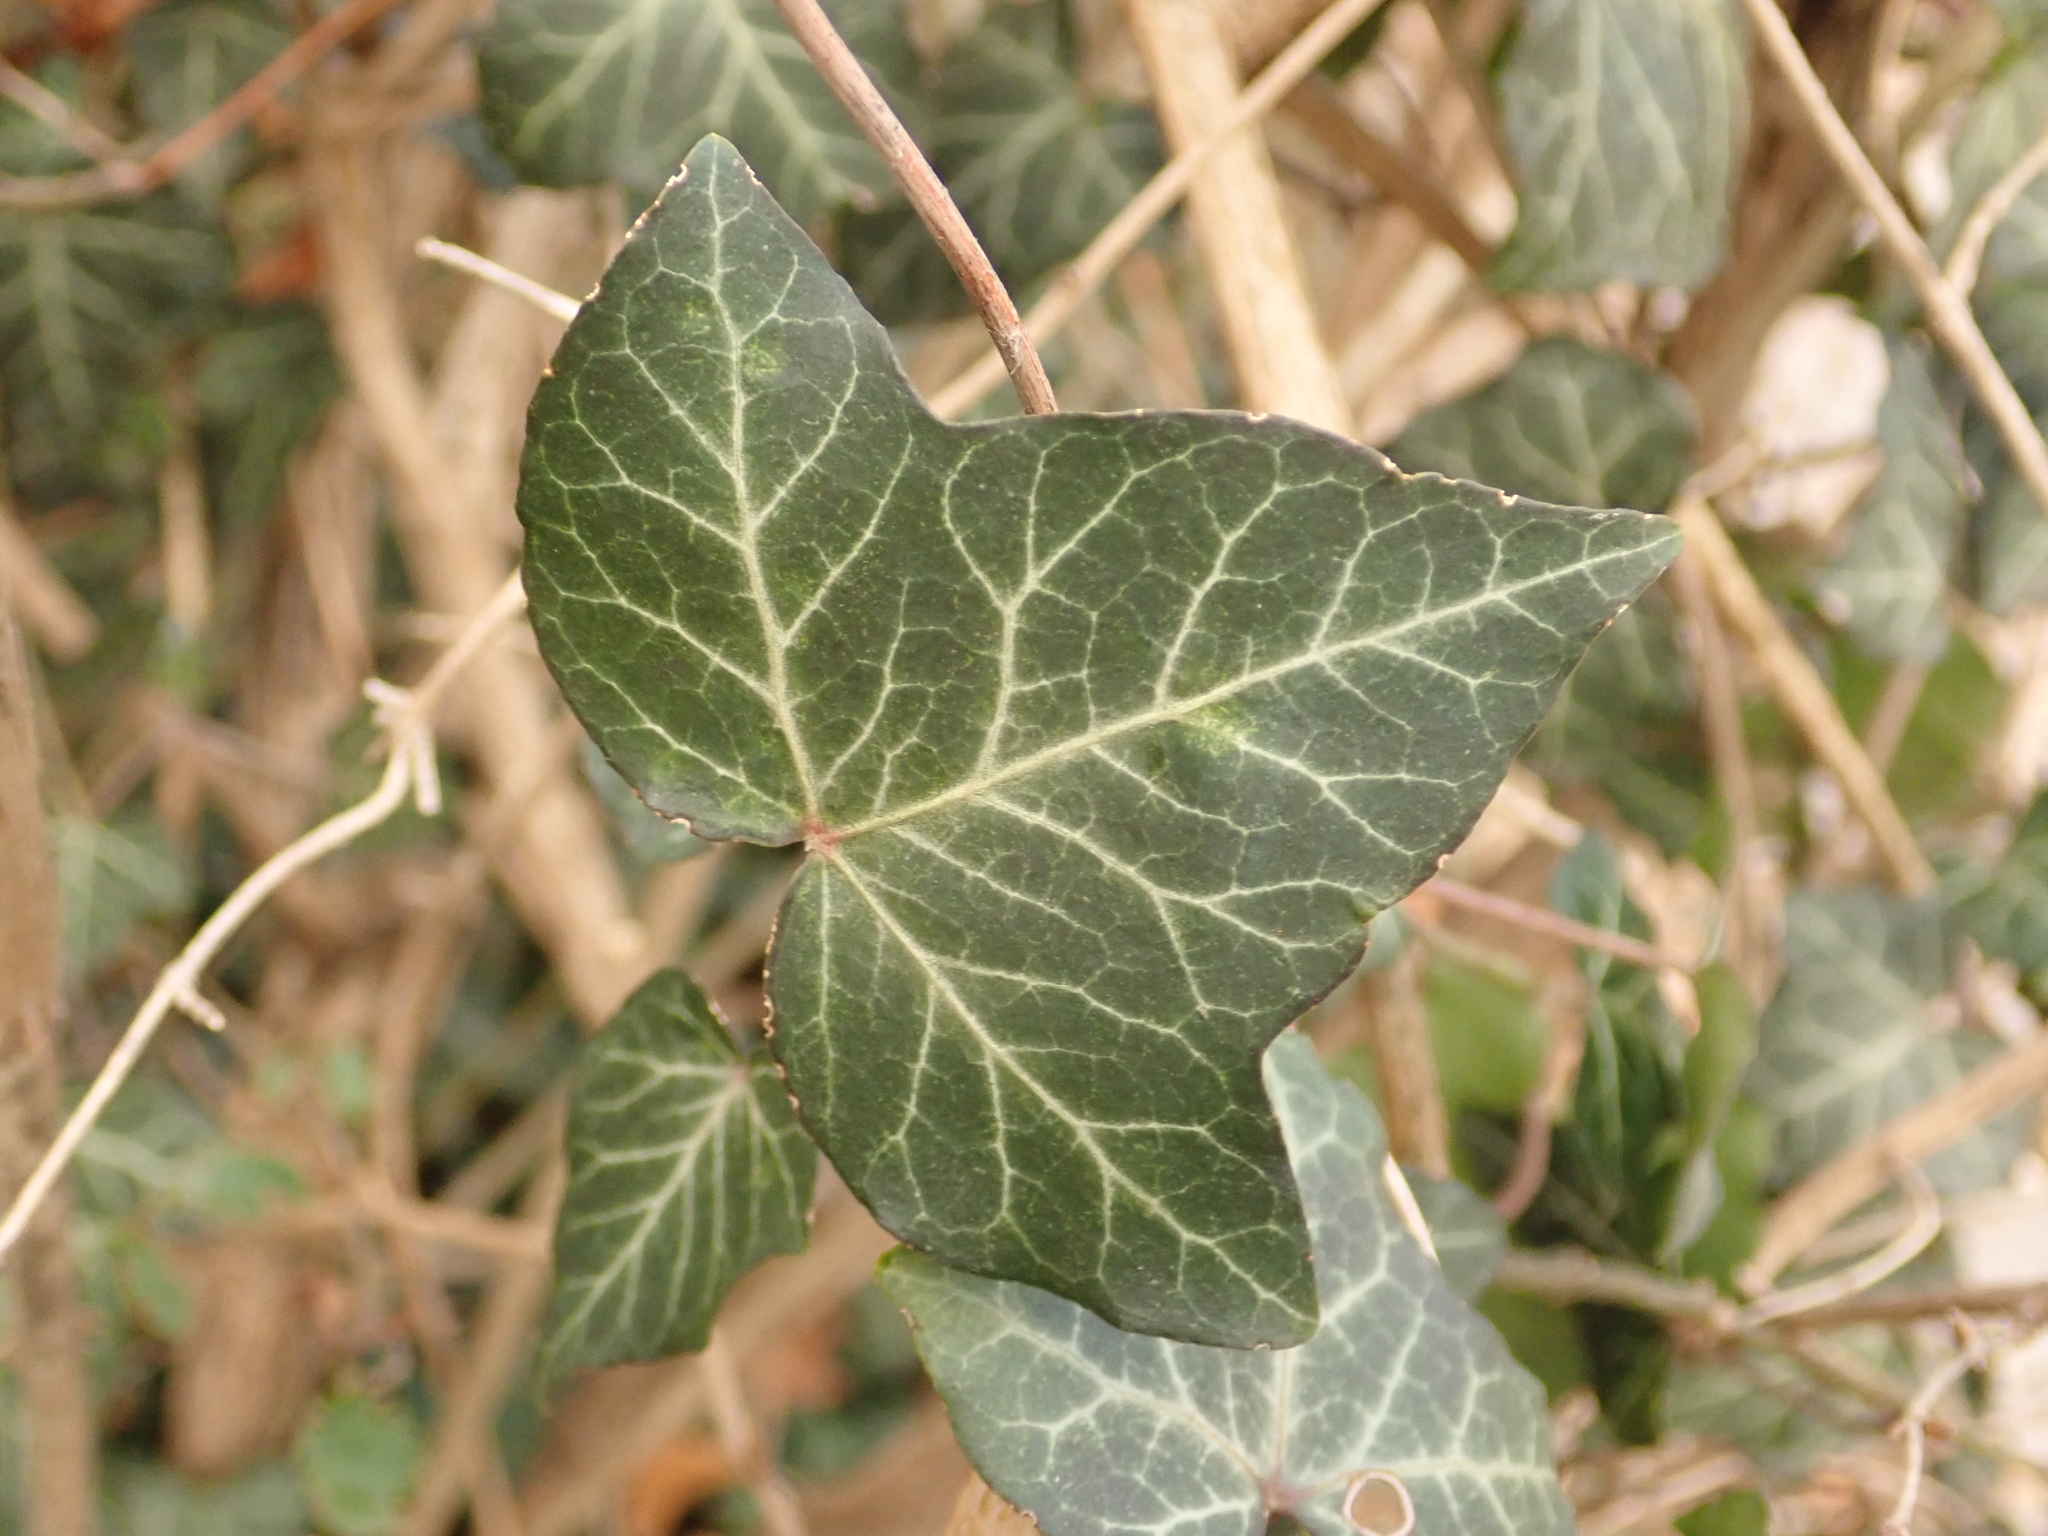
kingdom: Plantae
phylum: Tracheophyta
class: Magnoliopsida
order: Apiales
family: Araliaceae
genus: Hedera
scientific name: Hedera helix
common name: Ivy
